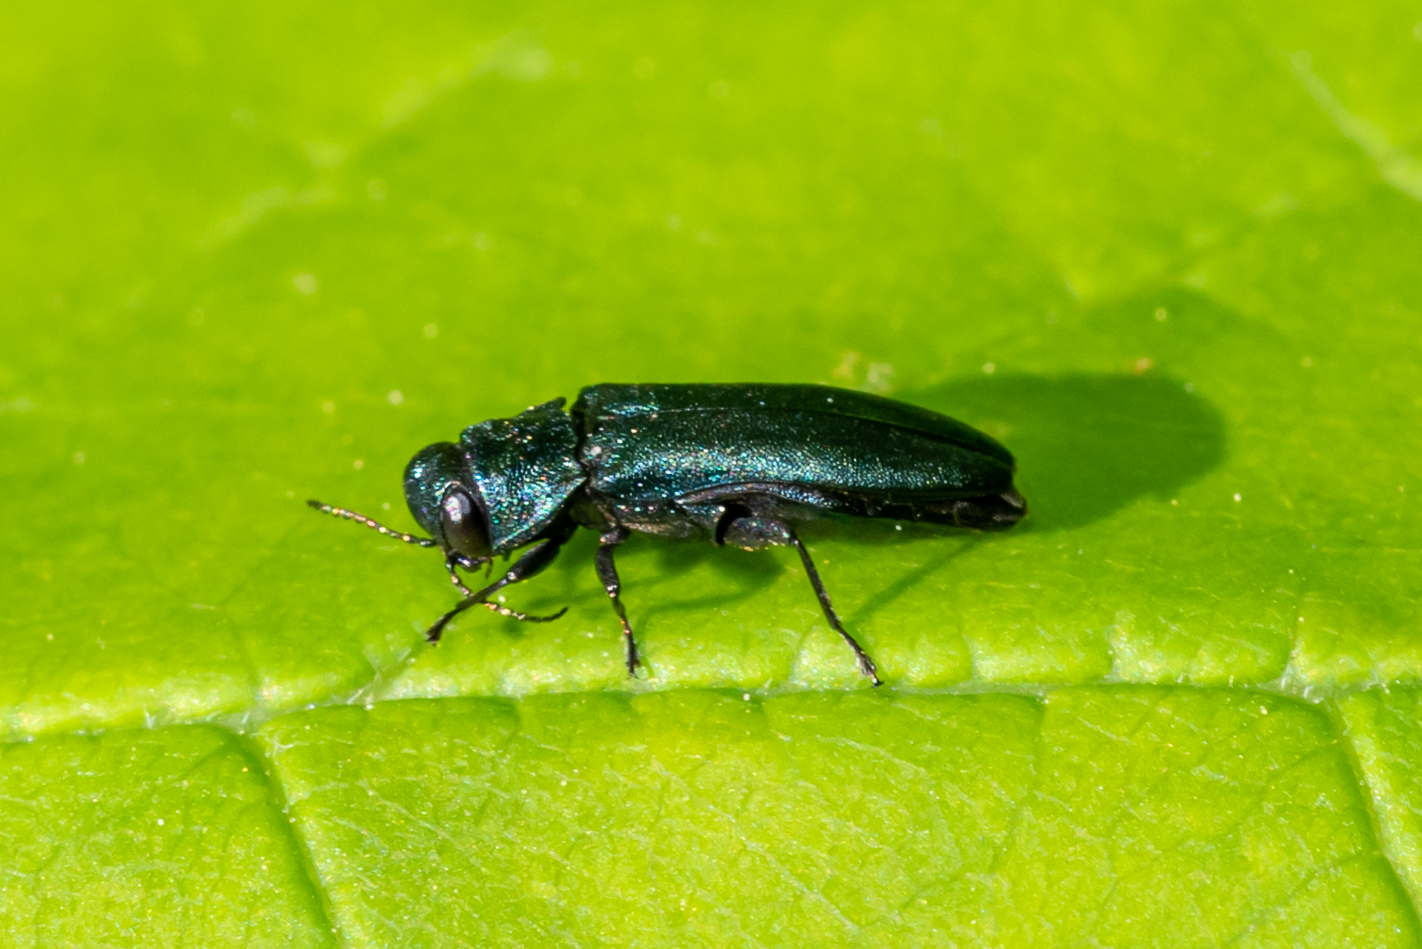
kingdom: Animalia
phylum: Arthropoda
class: Insecta
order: Coleoptera
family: Buprestidae
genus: Agrilus
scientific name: Agrilus cyanescens
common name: Bluish borer beetle
